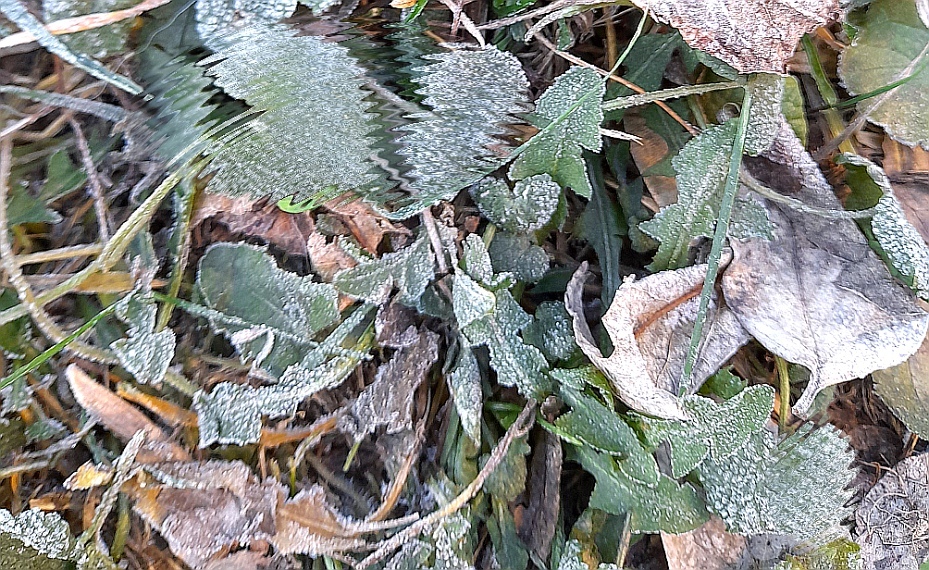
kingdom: Plantae
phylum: Tracheophyta
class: Magnoliopsida
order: Asterales
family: Asteraceae
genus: Taraxacum
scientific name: Taraxacum officinale
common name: Common dandelion
